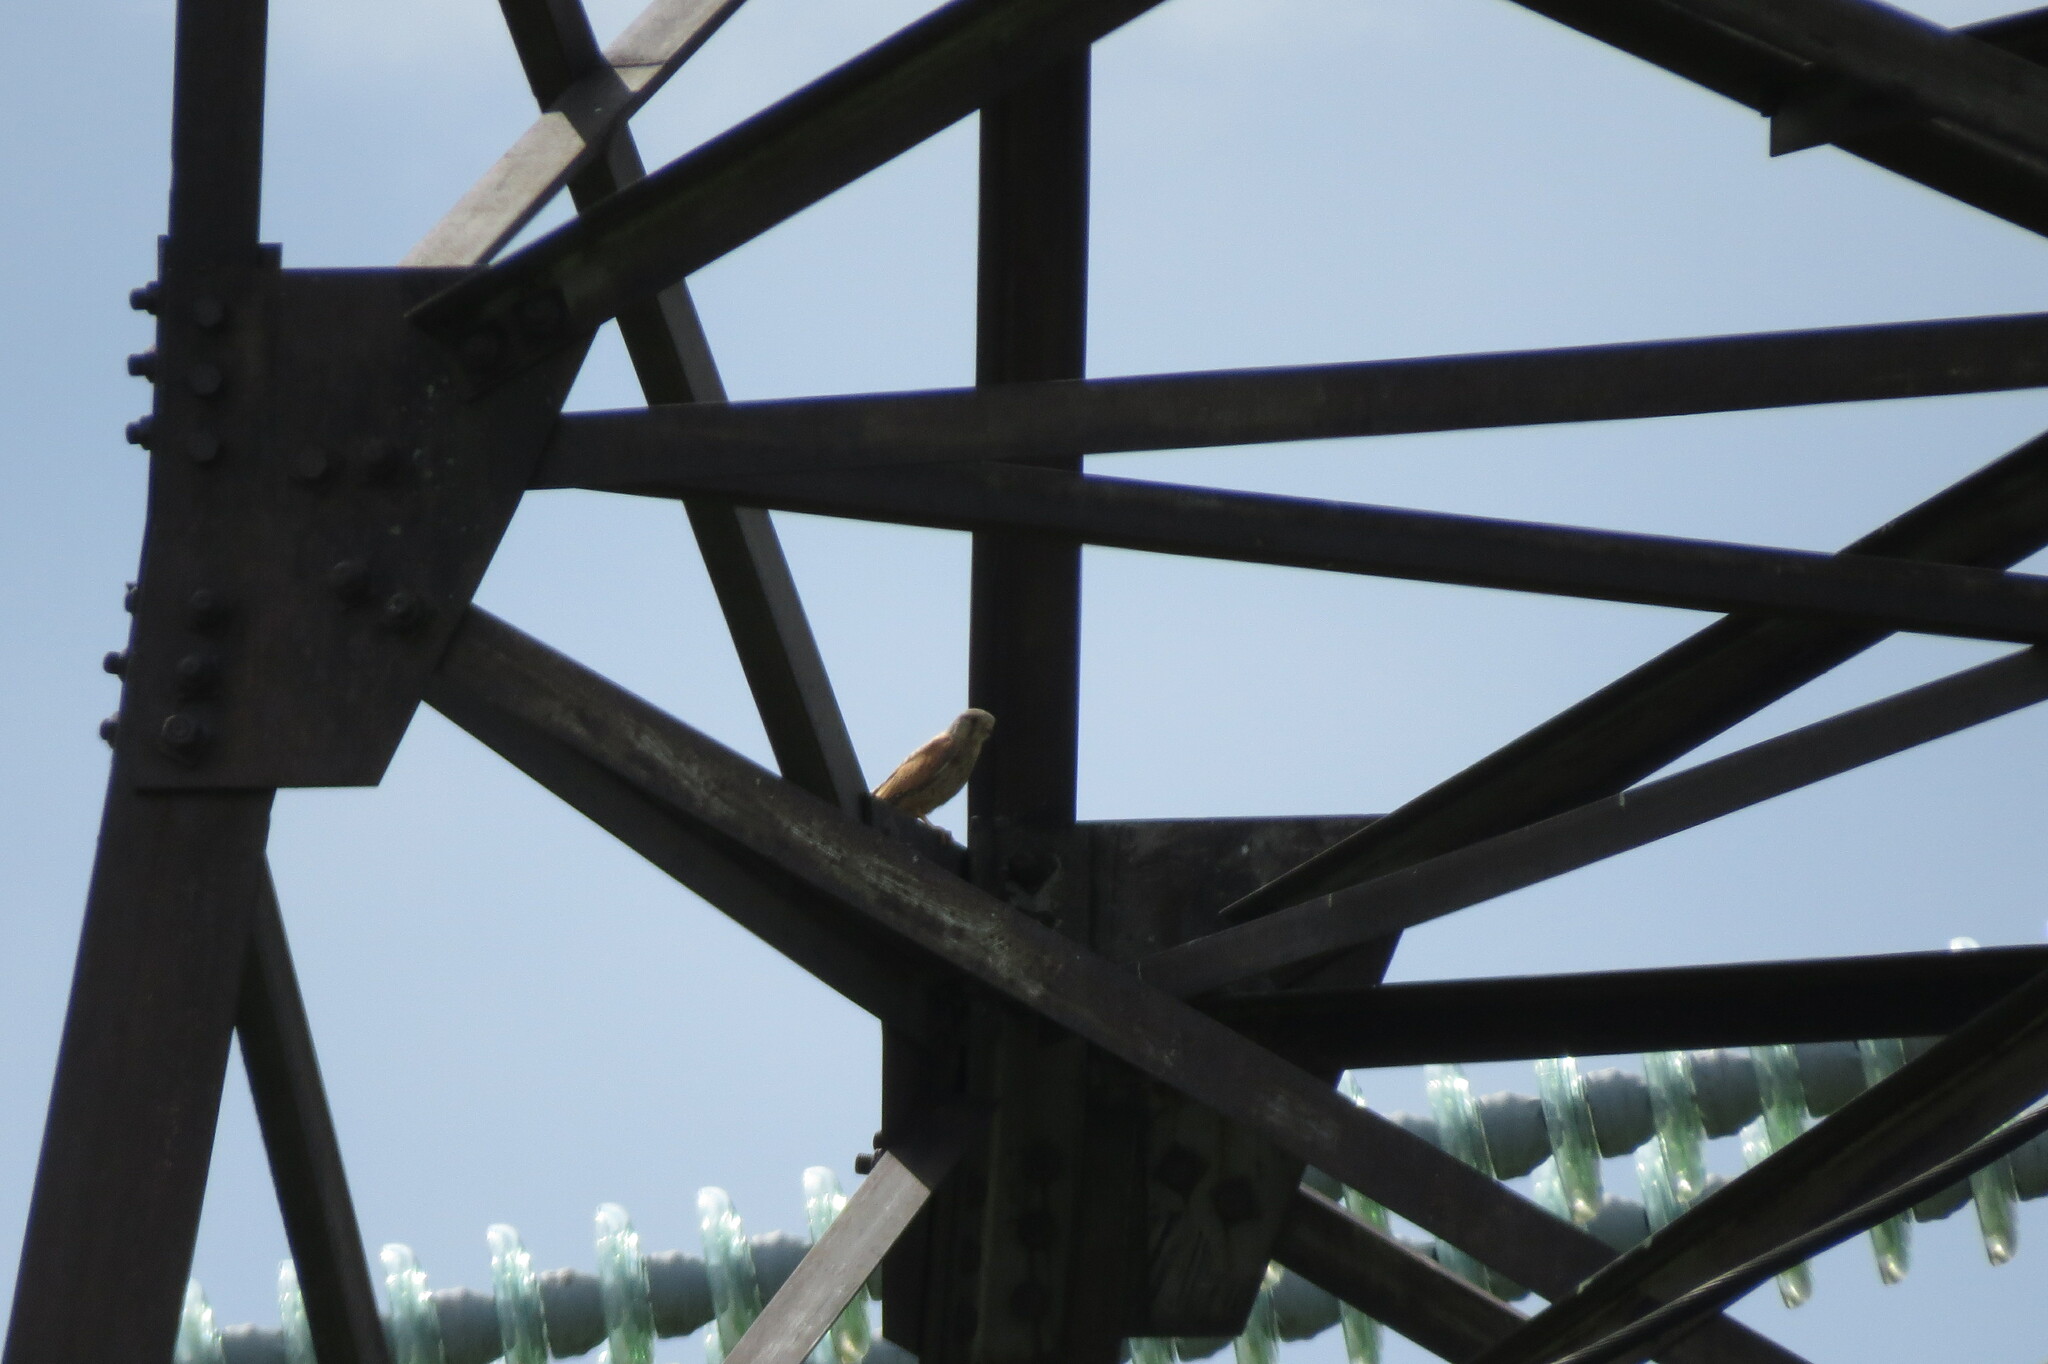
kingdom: Animalia
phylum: Chordata
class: Aves
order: Falconiformes
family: Falconidae
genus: Falco
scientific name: Falco tinnunculus
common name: Common kestrel
